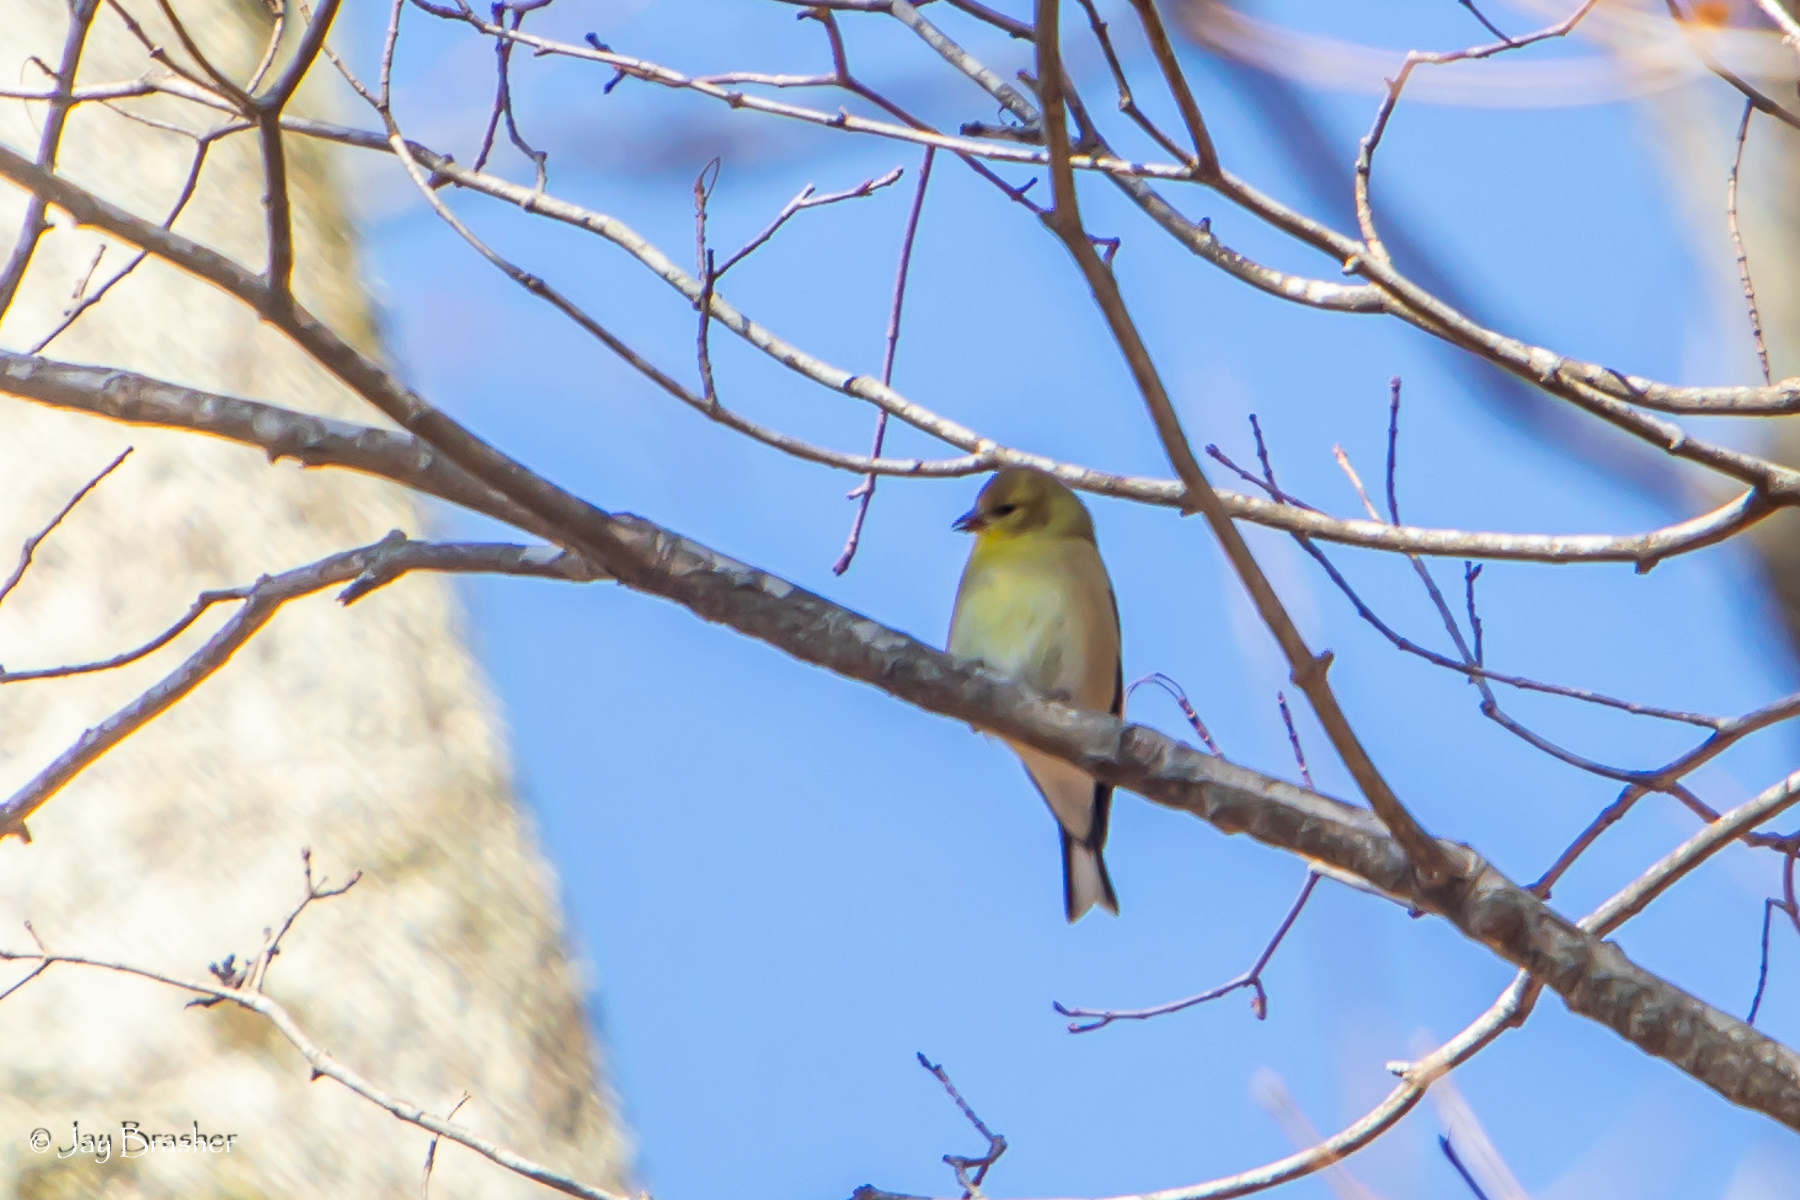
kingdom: Animalia
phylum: Chordata
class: Aves
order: Passeriformes
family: Fringillidae
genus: Spinus
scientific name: Spinus tristis
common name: American goldfinch
